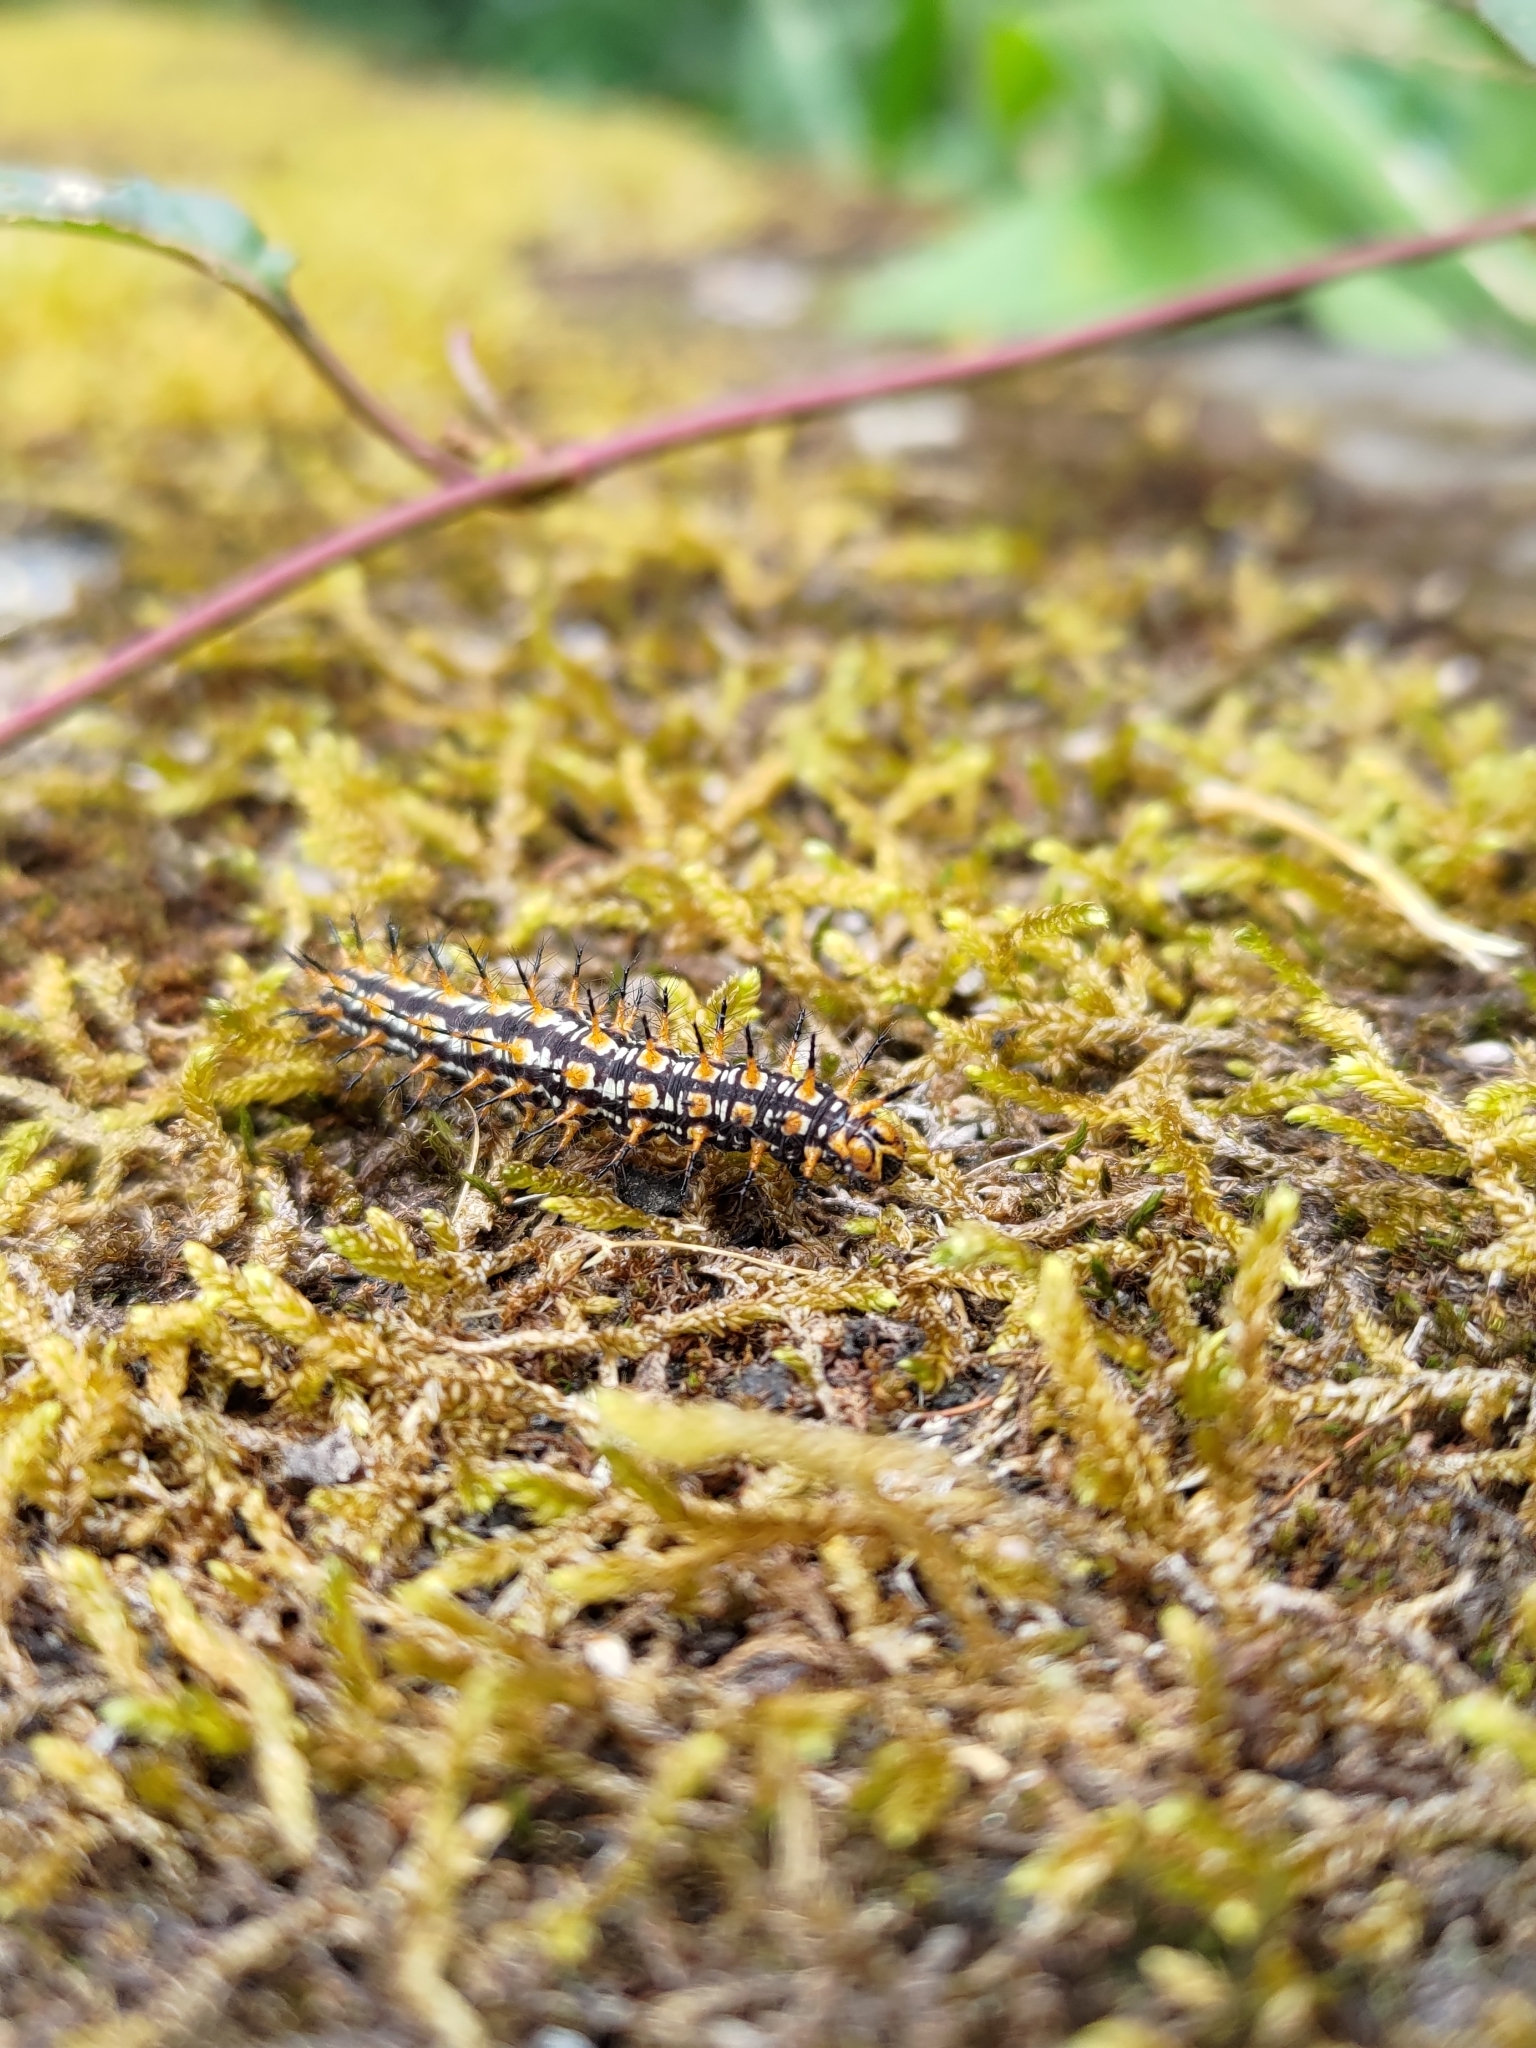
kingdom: Animalia
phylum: Arthropoda
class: Insecta
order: Lepidoptera
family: Nymphalidae
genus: Acraea
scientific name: Acraea Telchinia issoria
